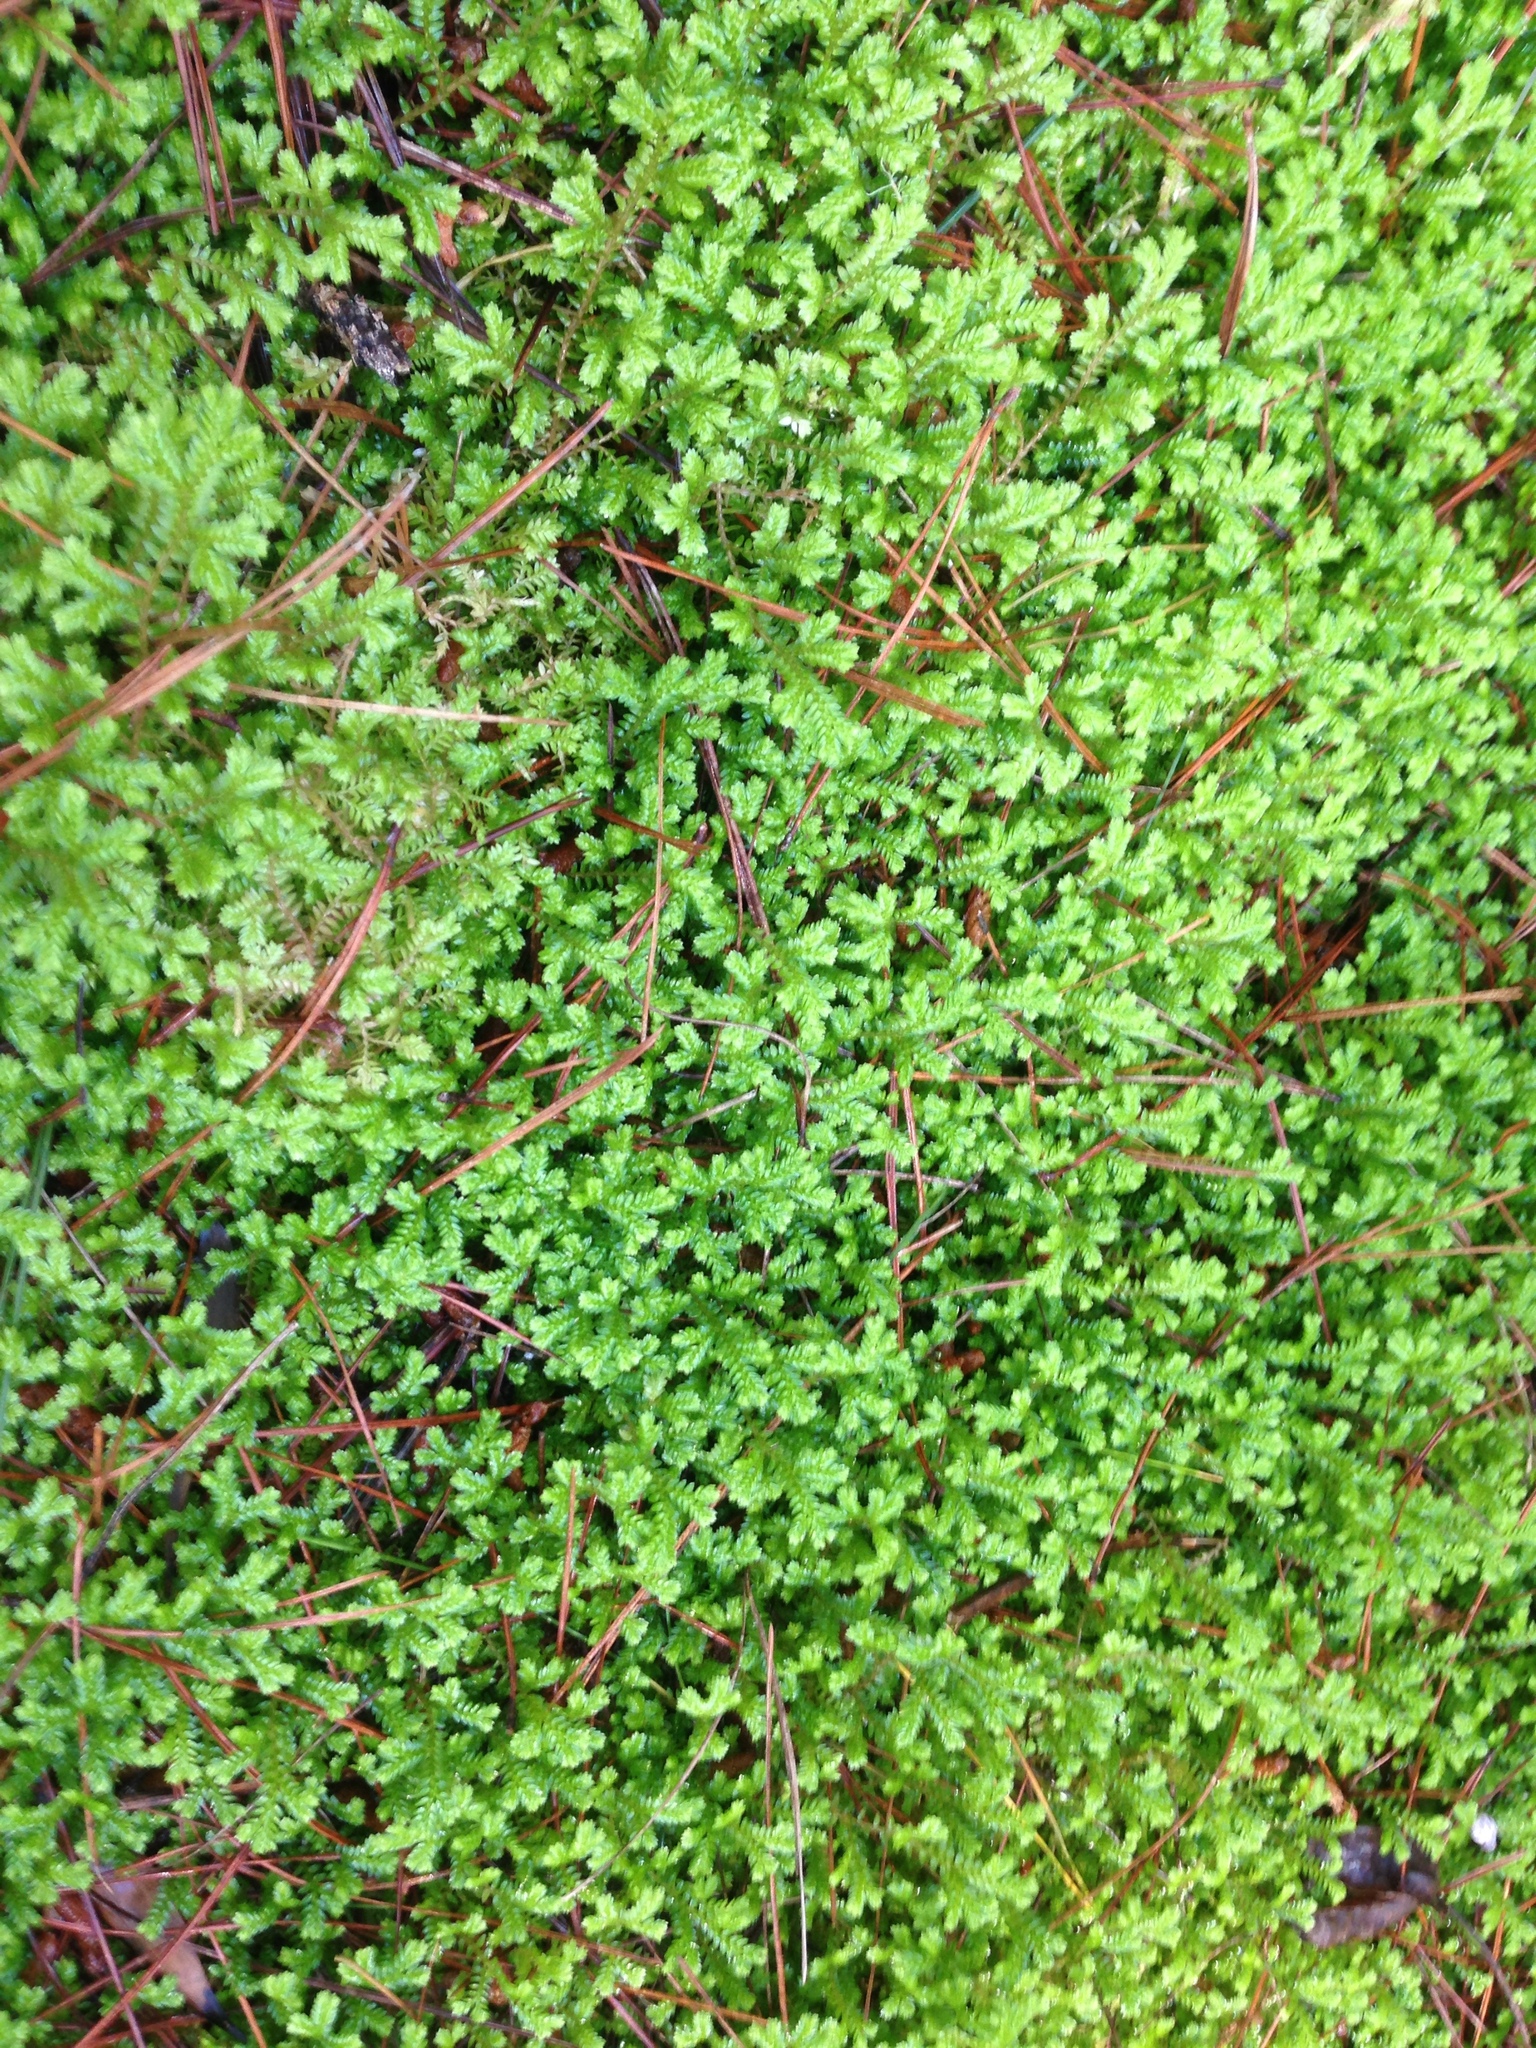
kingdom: Plantae
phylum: Tracheophyta
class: Lycopodiopsida
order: Selaginellales
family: Selaginellaceae
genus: Selaginella
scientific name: Selaginella kraussiana
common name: Krauss' spikemoss
